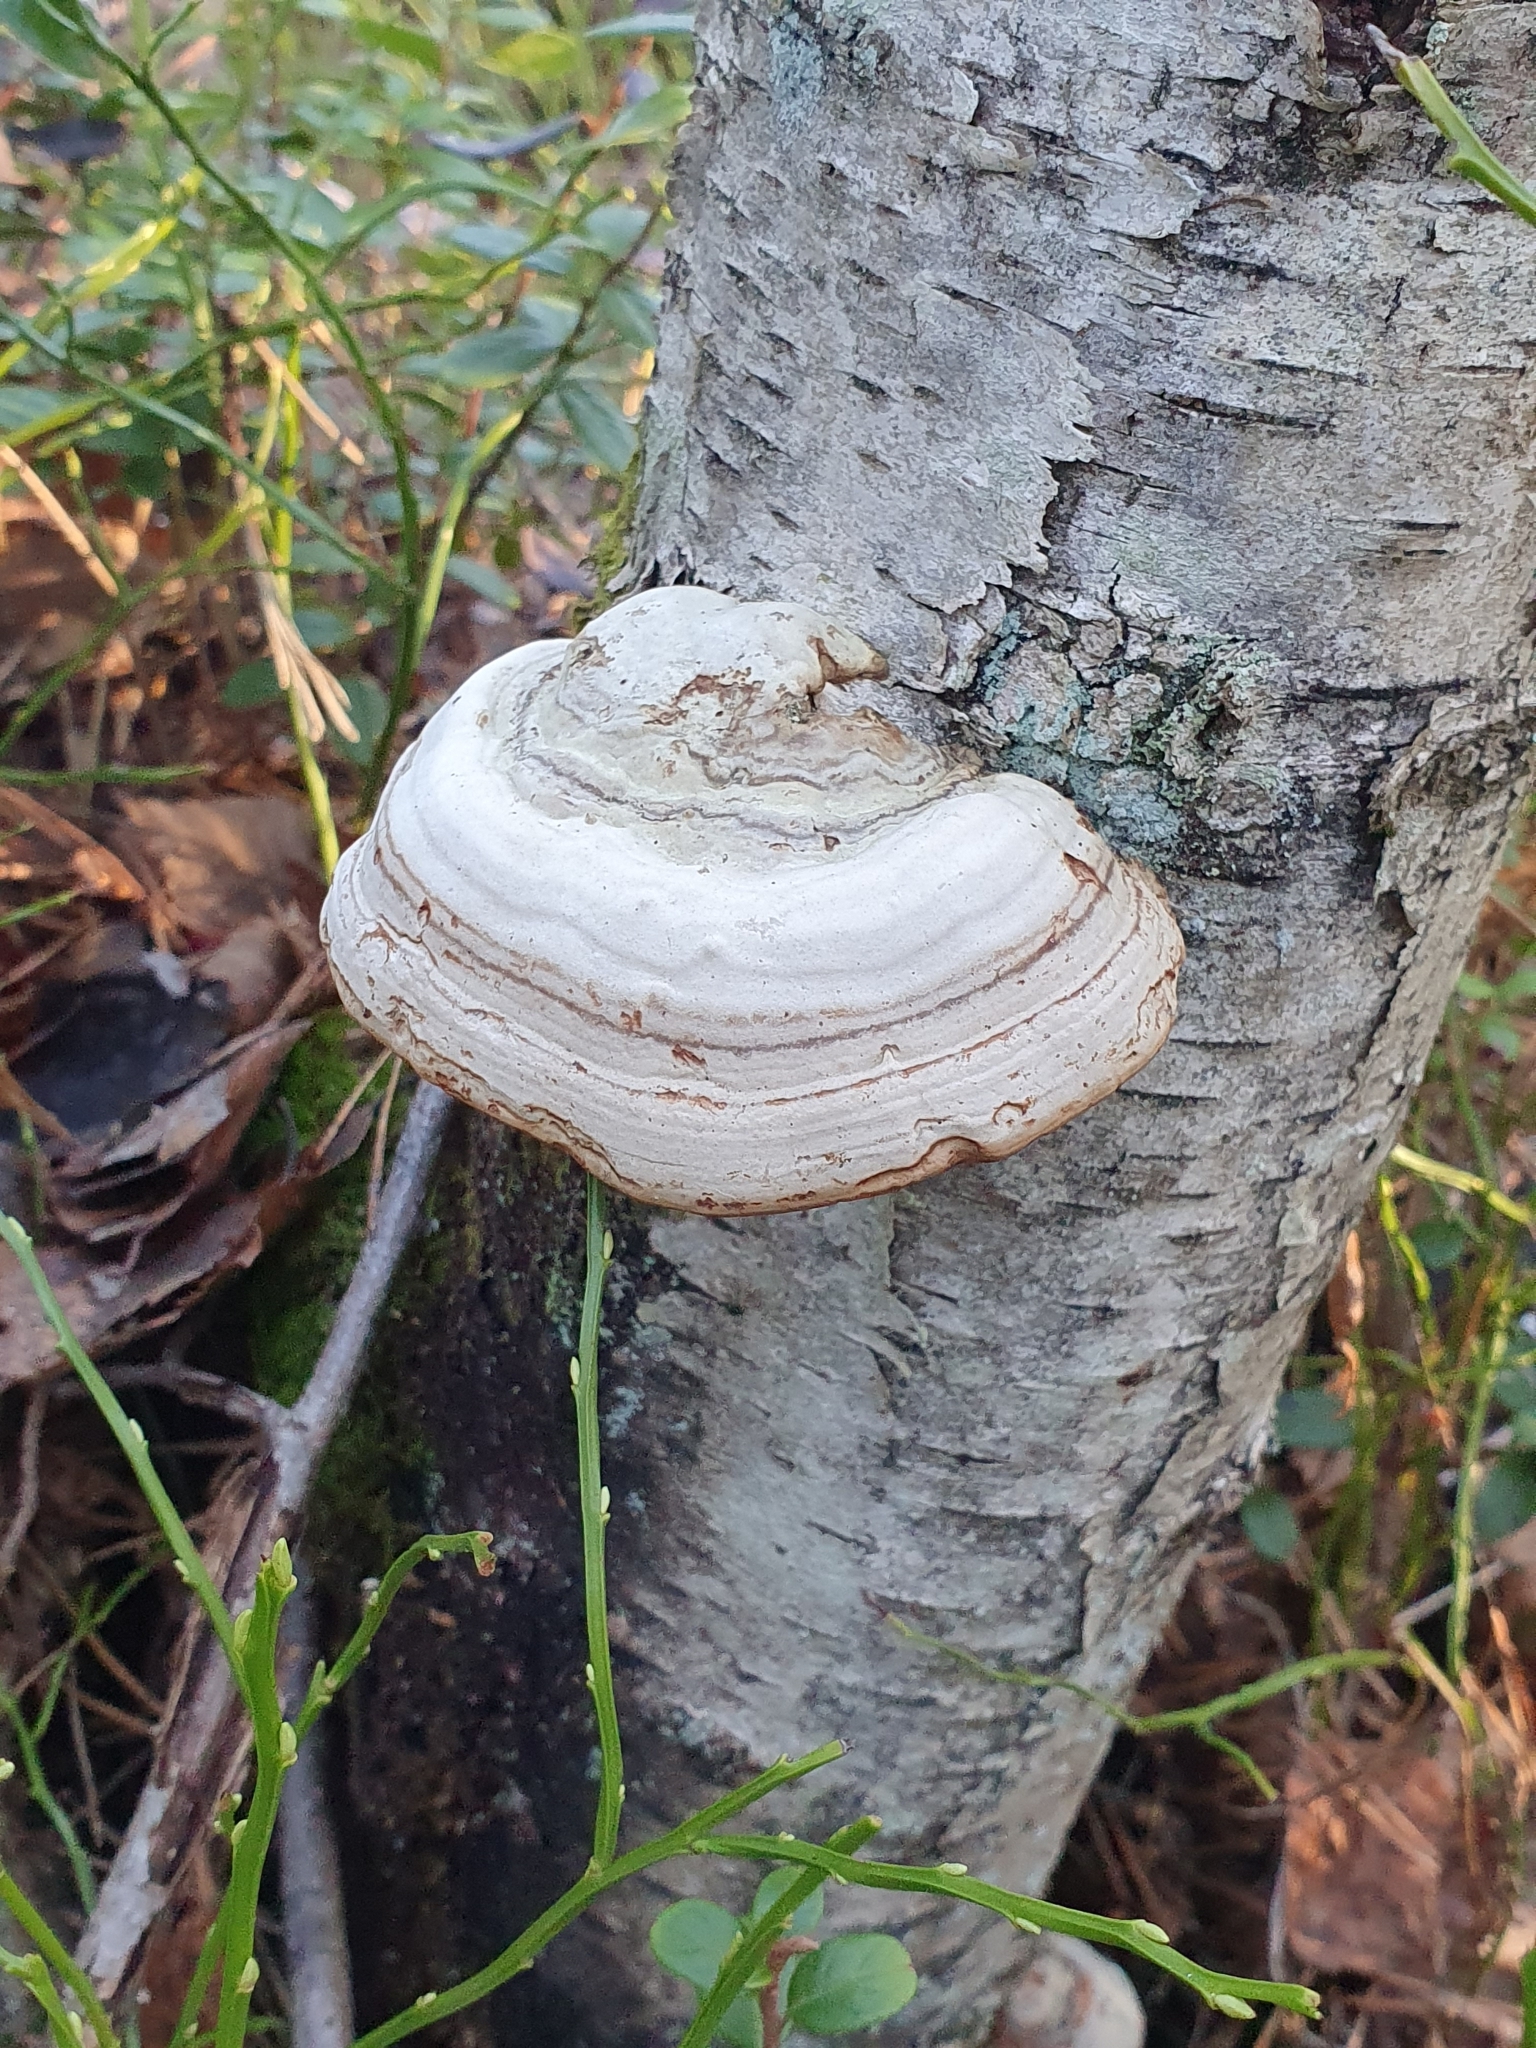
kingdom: Fungi
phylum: Basidiomycota
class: Agaricomycetes
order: Polyporales
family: Polyporaceae
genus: Fomes
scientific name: Fomes fomentarius
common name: Hoof fungus
